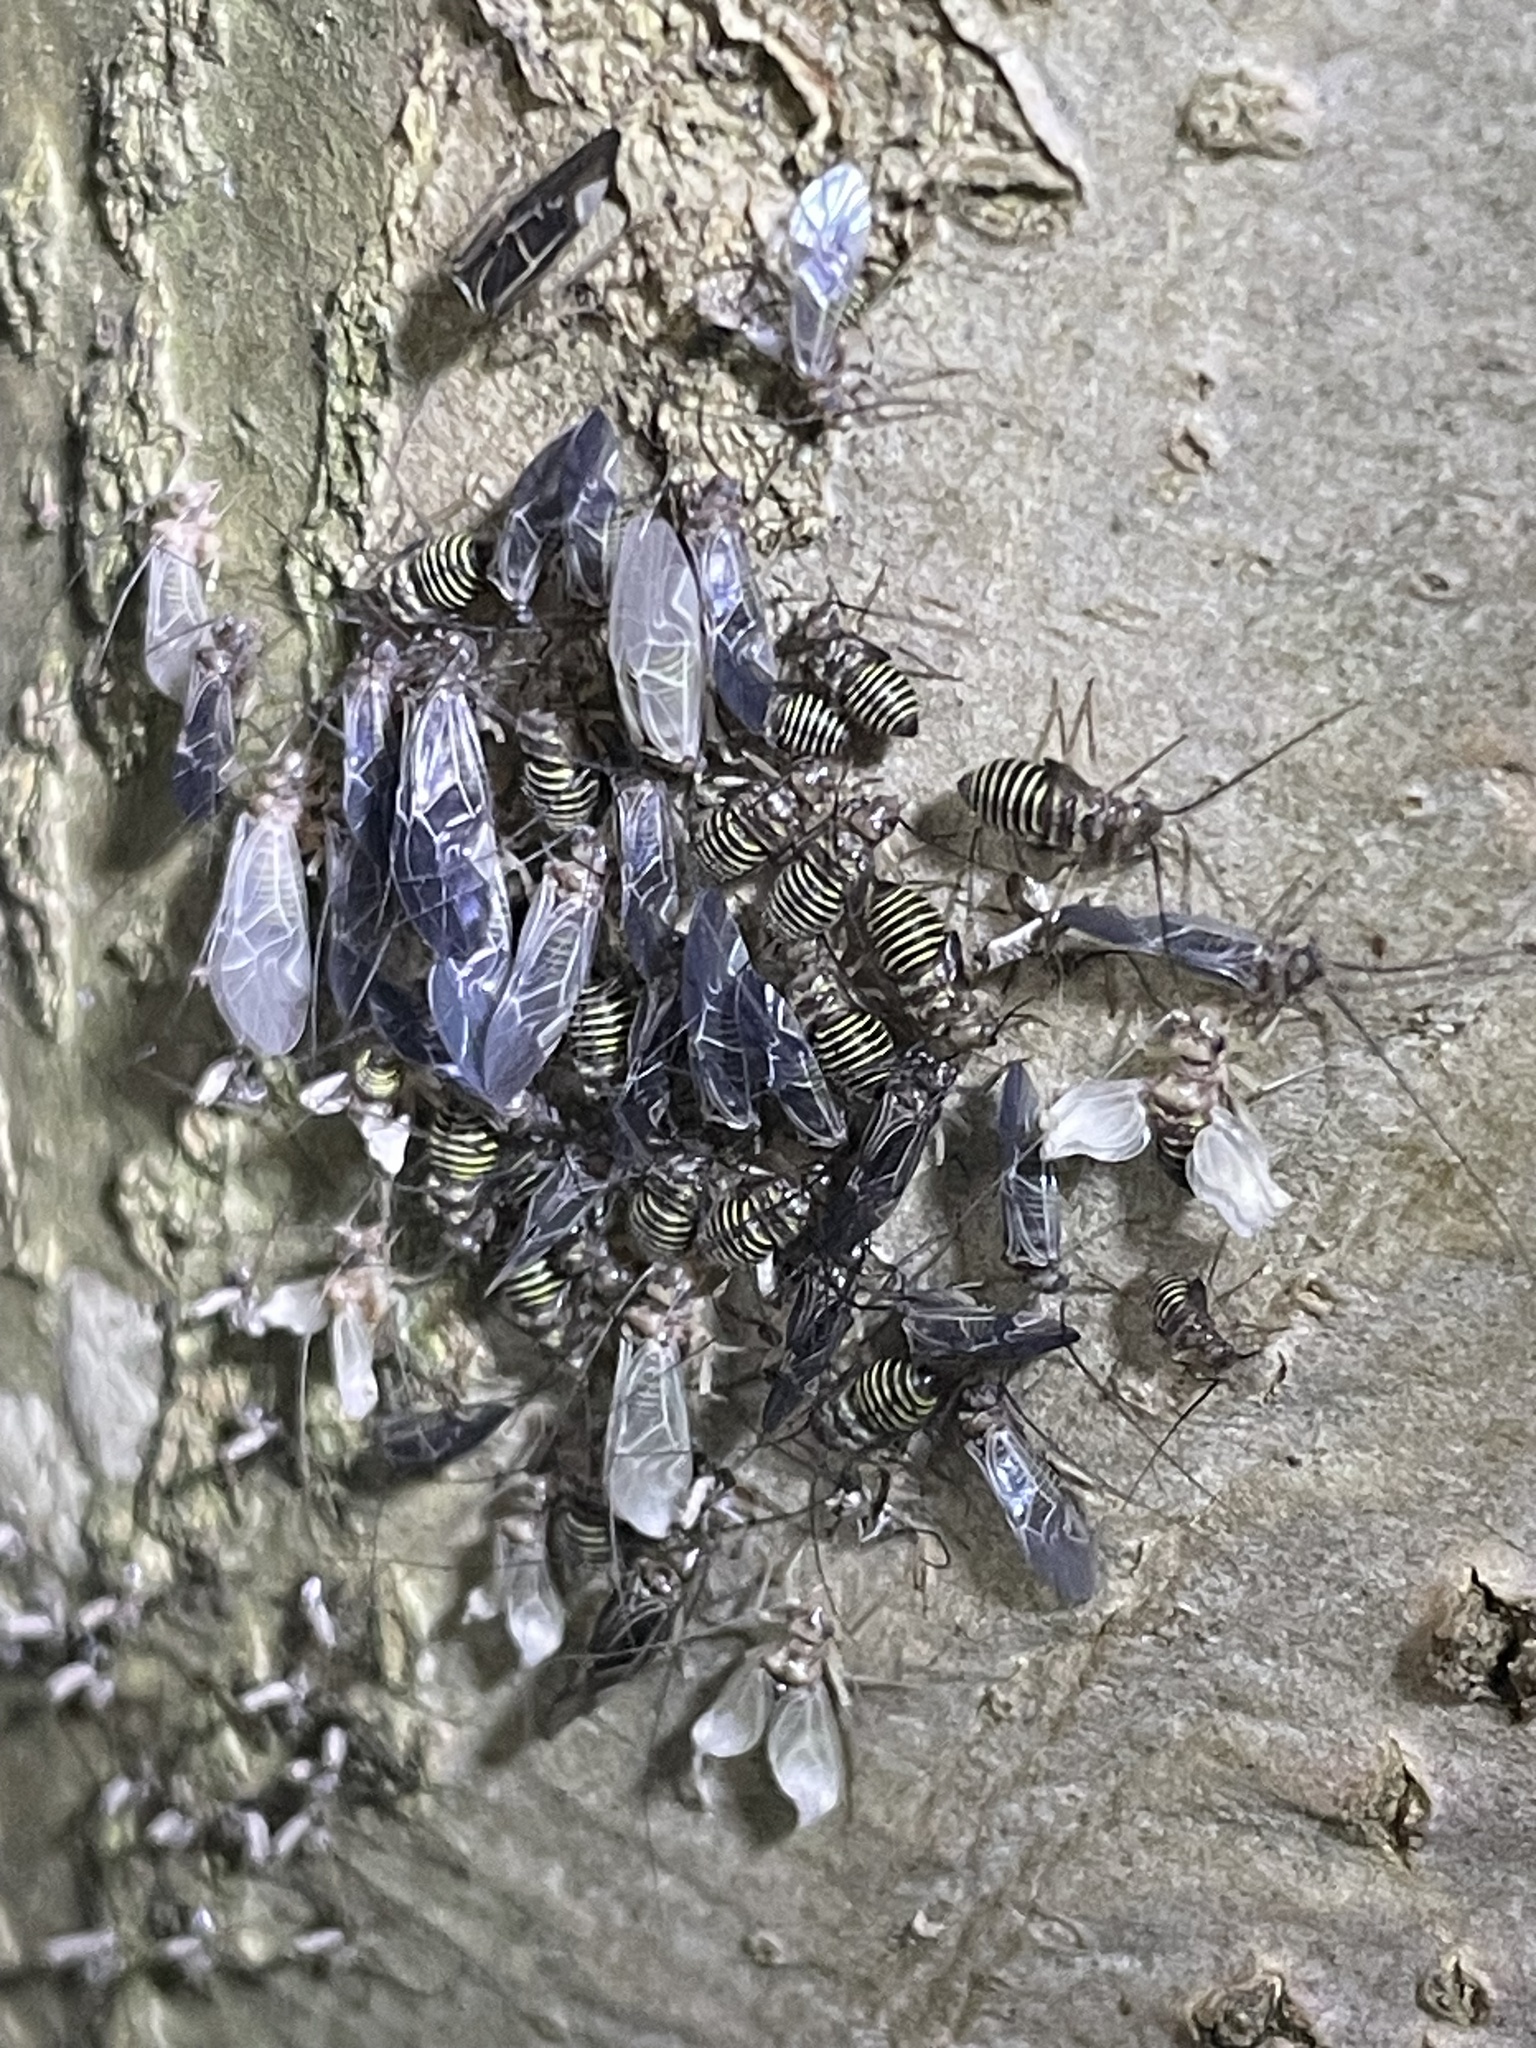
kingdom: Animalia
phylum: Arthropoda
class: Insecta
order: Psocodea
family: Psocidae
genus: Cerastipsocus
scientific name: Cerastipsocus venosus
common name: Tree cattle
